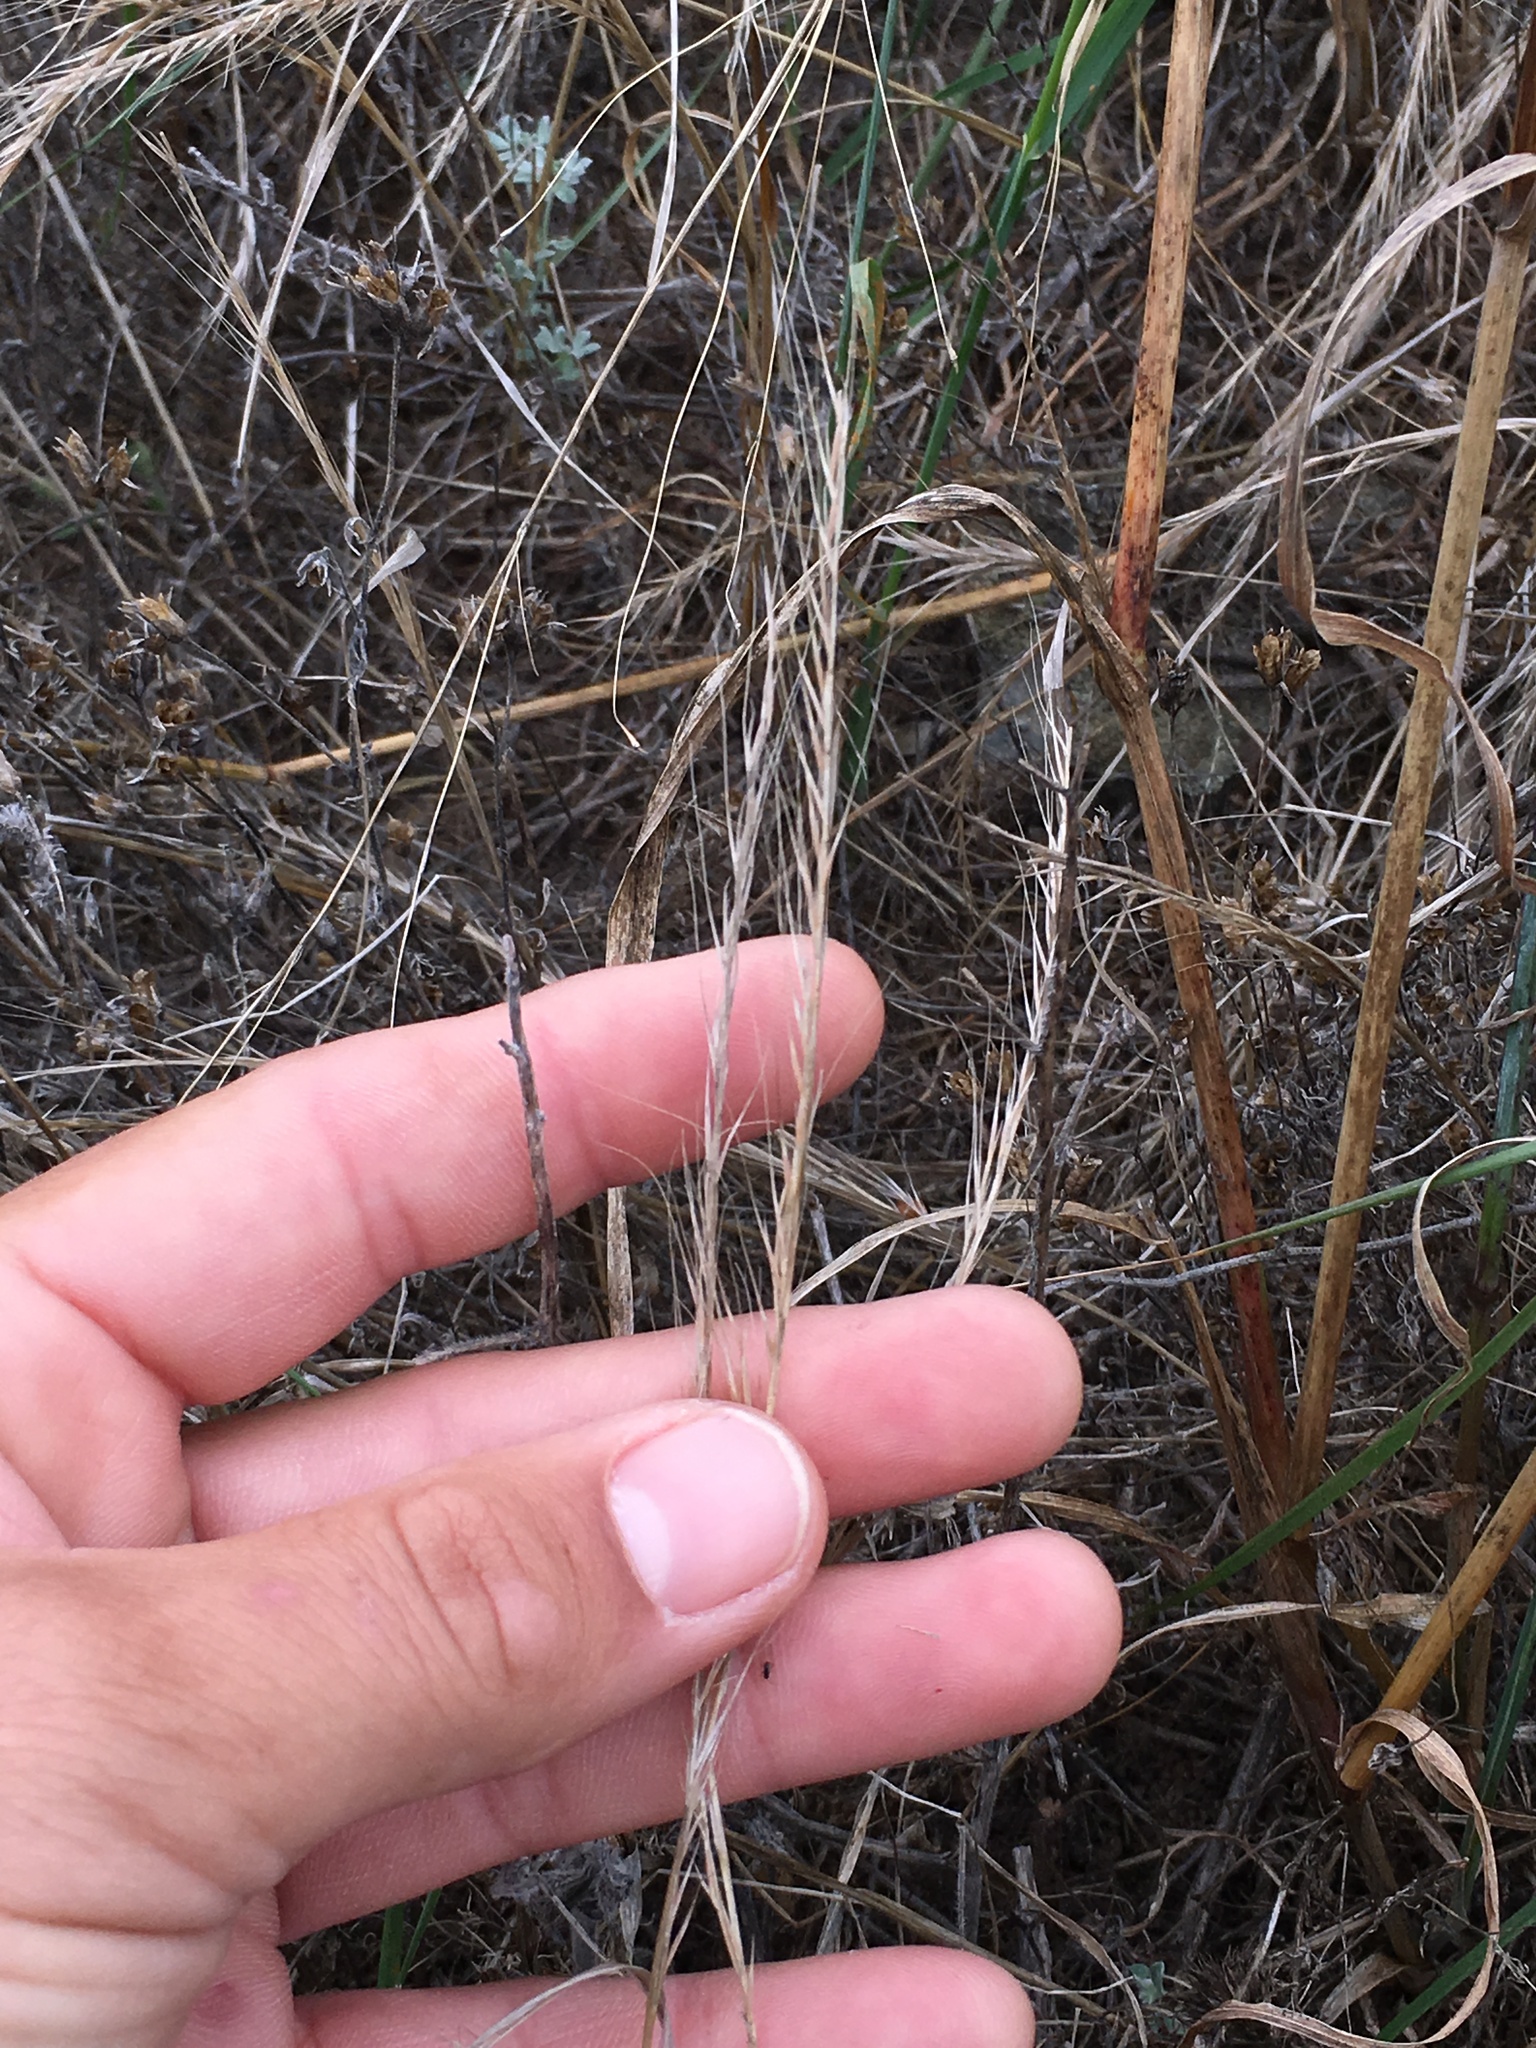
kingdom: Plantae
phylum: Tracheophyta
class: Liliopsida
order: Poales
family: Poaceae
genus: Festuca
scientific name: Festuca myuros
